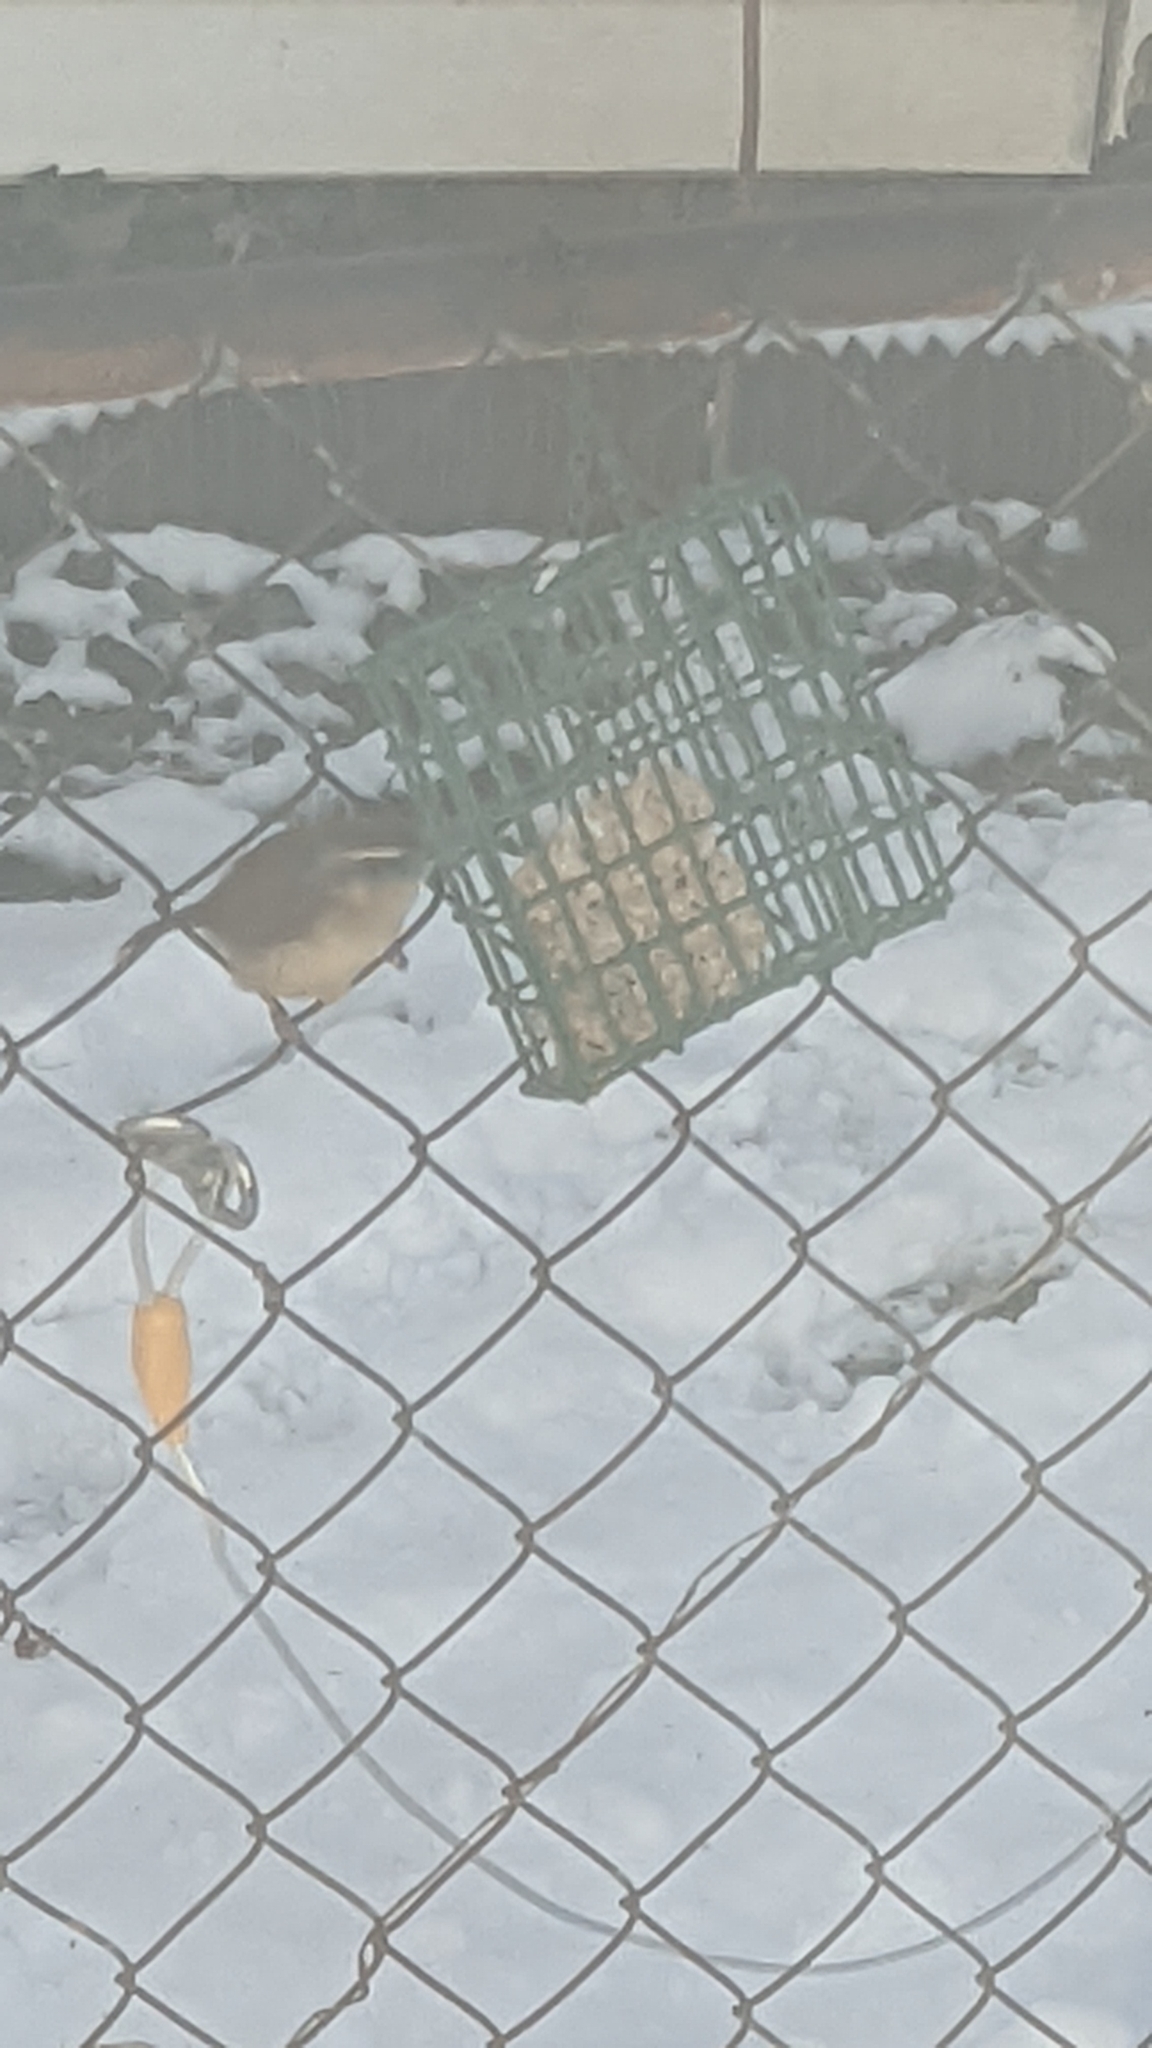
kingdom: Animalia
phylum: Chordata
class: Aves
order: Passeriformes
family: Troglodytidae
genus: Thryothorus
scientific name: Thryothorus ludovicianus
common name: Carolina wren
